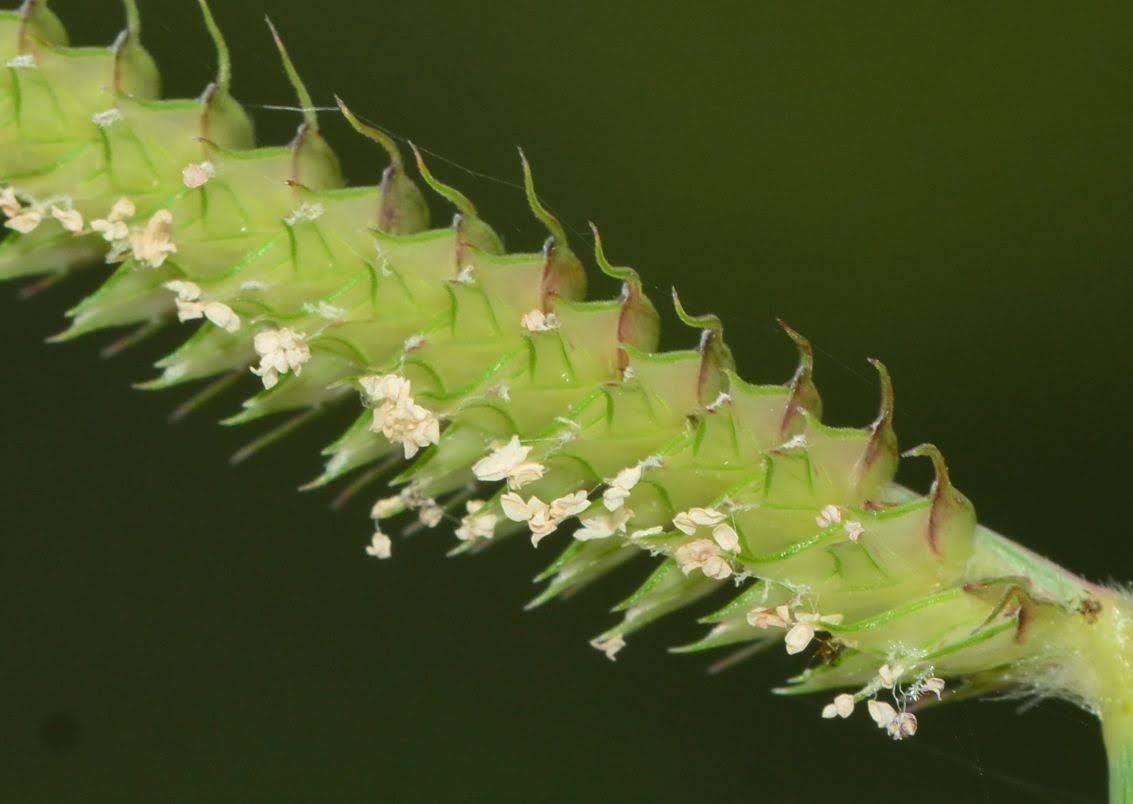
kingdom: Plantae
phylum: Tracheophyta
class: Liliopsida
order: Poales
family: Poaceae
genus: Dactyloctenium
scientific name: Dactyloctenium aegyptium
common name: Egyptian grass
